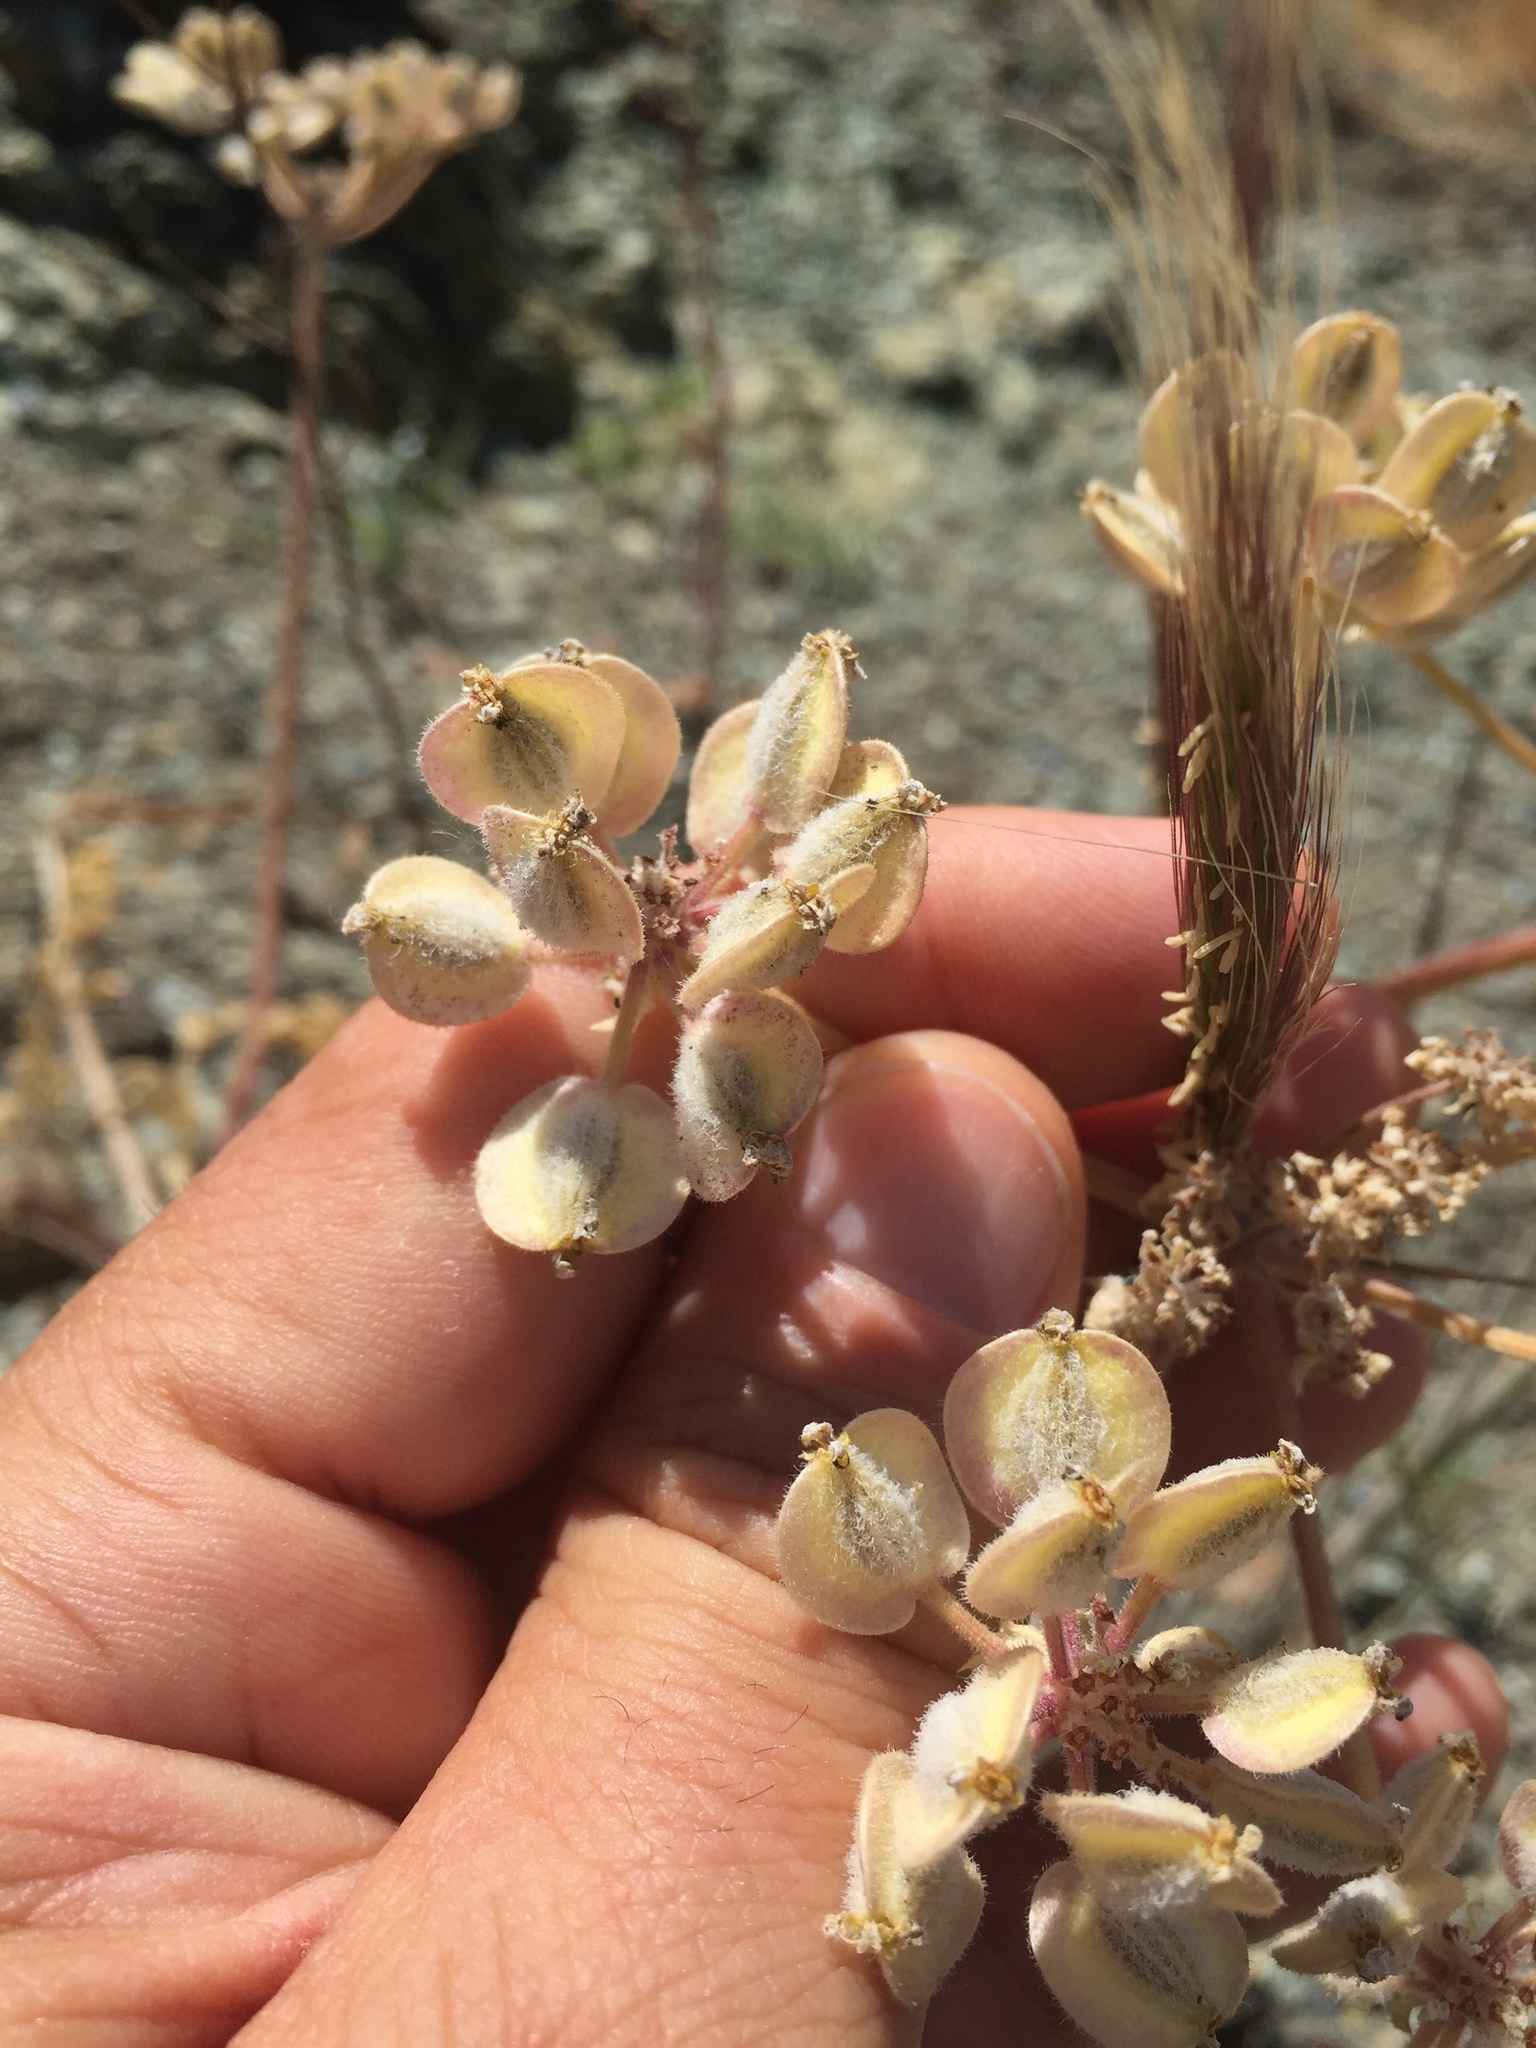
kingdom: Plantae
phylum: Tracheophyta
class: Magnoliopsida
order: Apiales
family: Apiaceae
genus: Lomatium
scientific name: Lomatium dasycarpum
